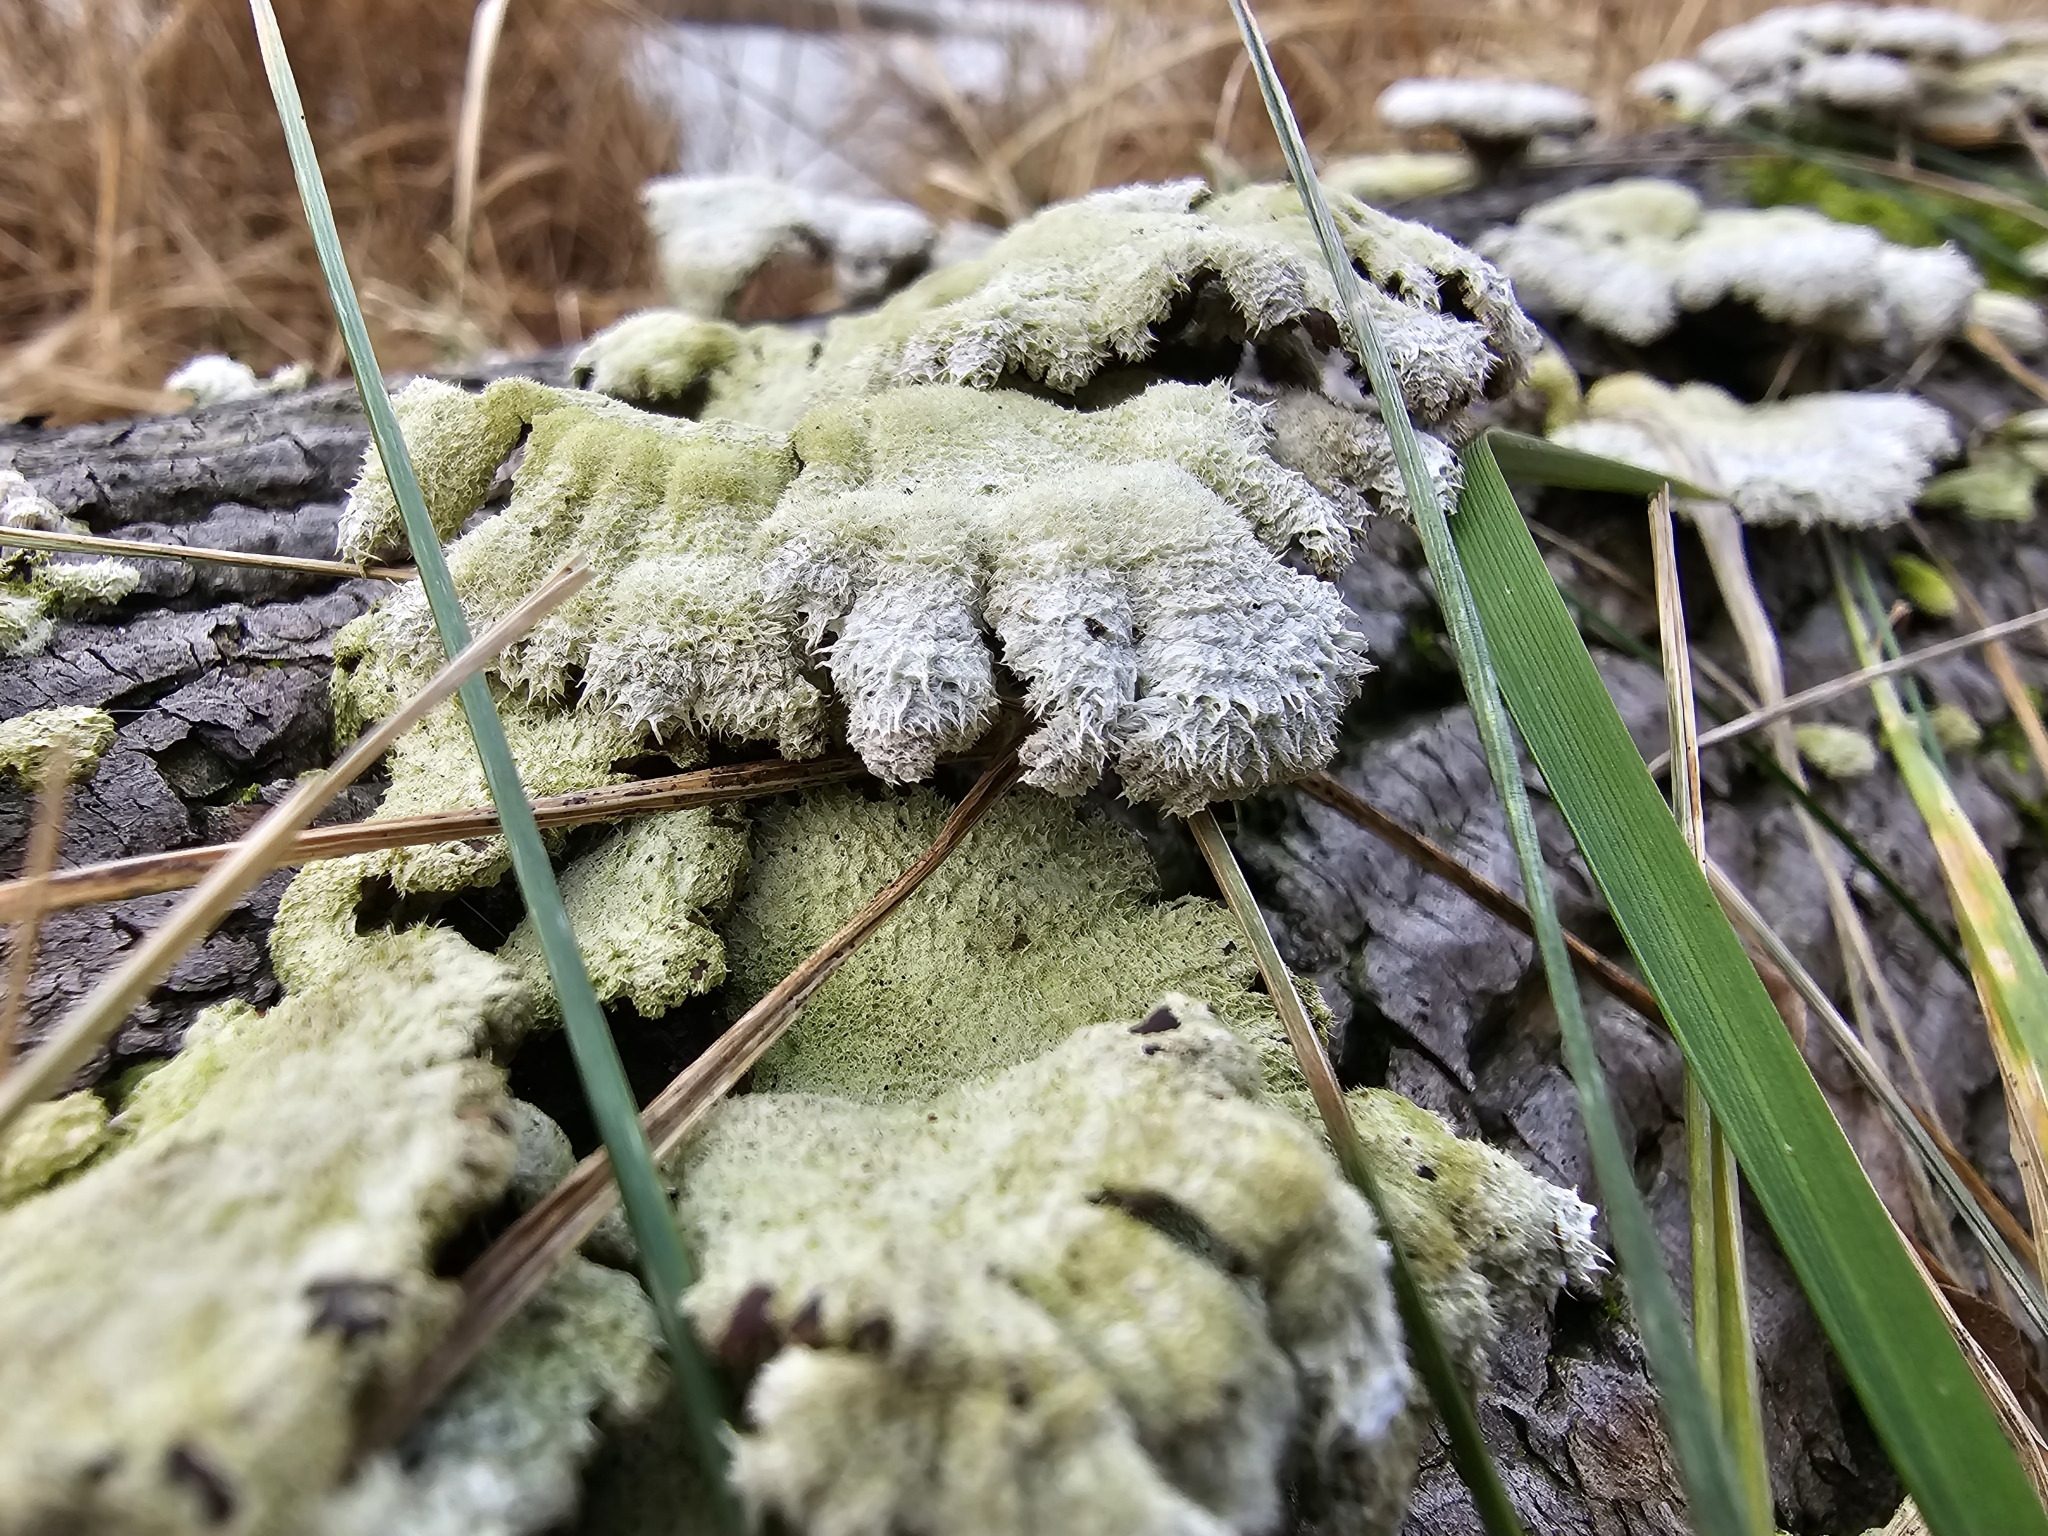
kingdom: Fungi
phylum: Basidiomycota
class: Agaricomycetes
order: Agaricales
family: Schizophyllaceae
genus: Schizophyllum
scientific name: Schizophyllum commune
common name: Common porecrust
